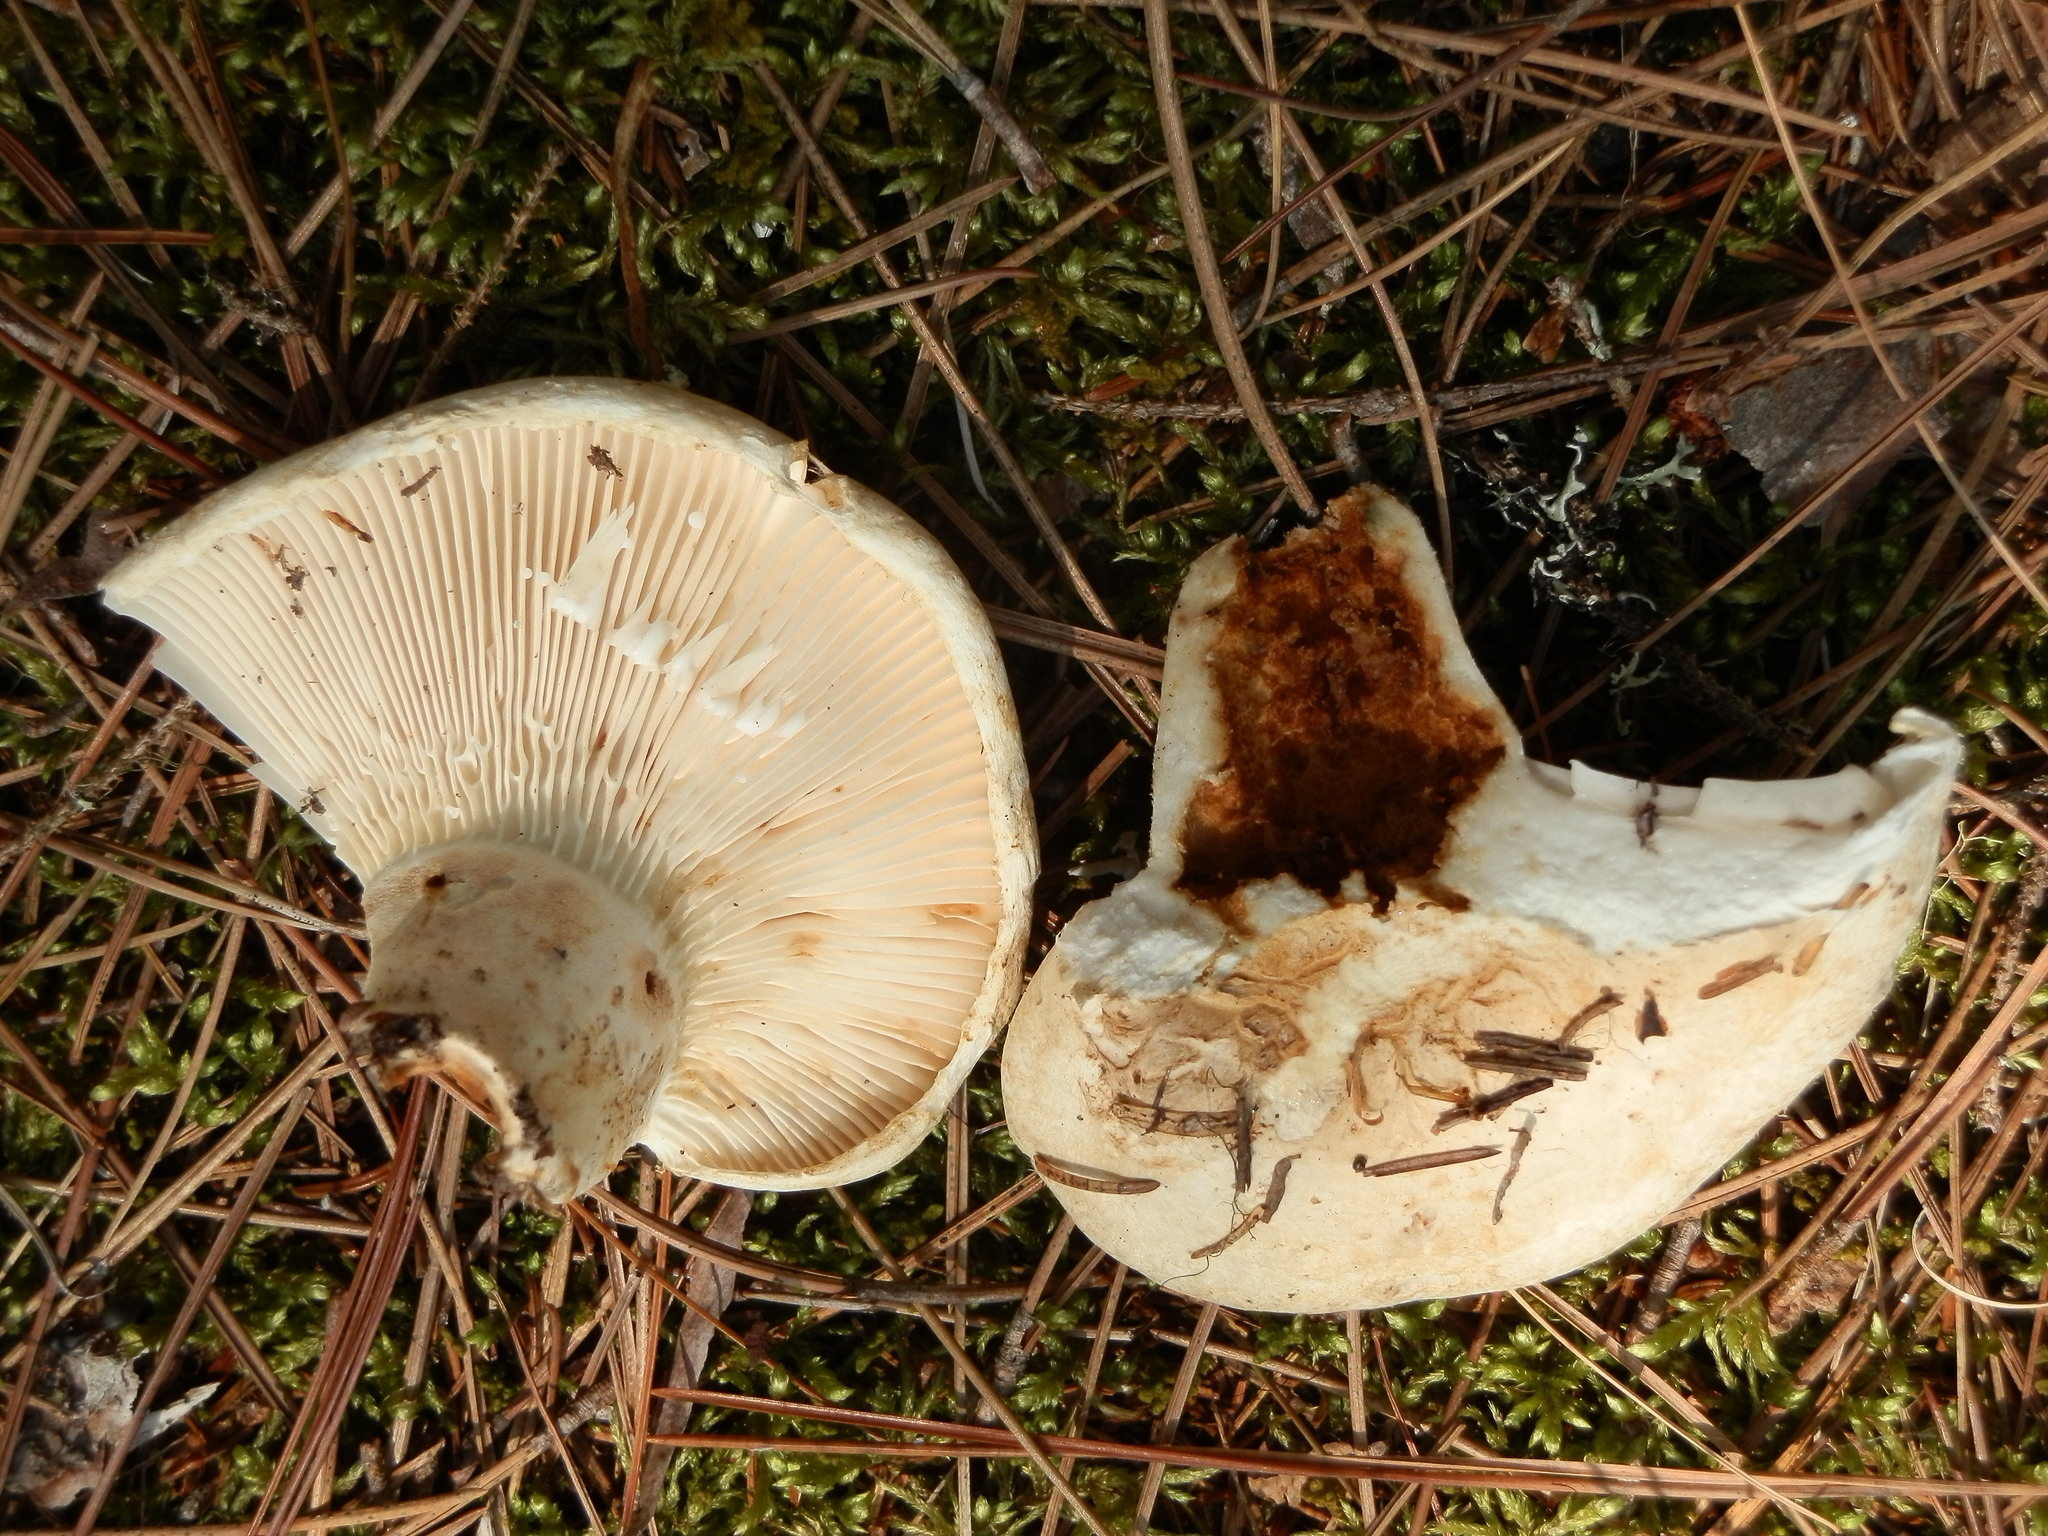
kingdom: Fungi
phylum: Basidiomycota
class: Agaricomycetes
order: Russulales
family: Russulaceae
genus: Lactifluus
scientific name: Lactifluus subvellereus
